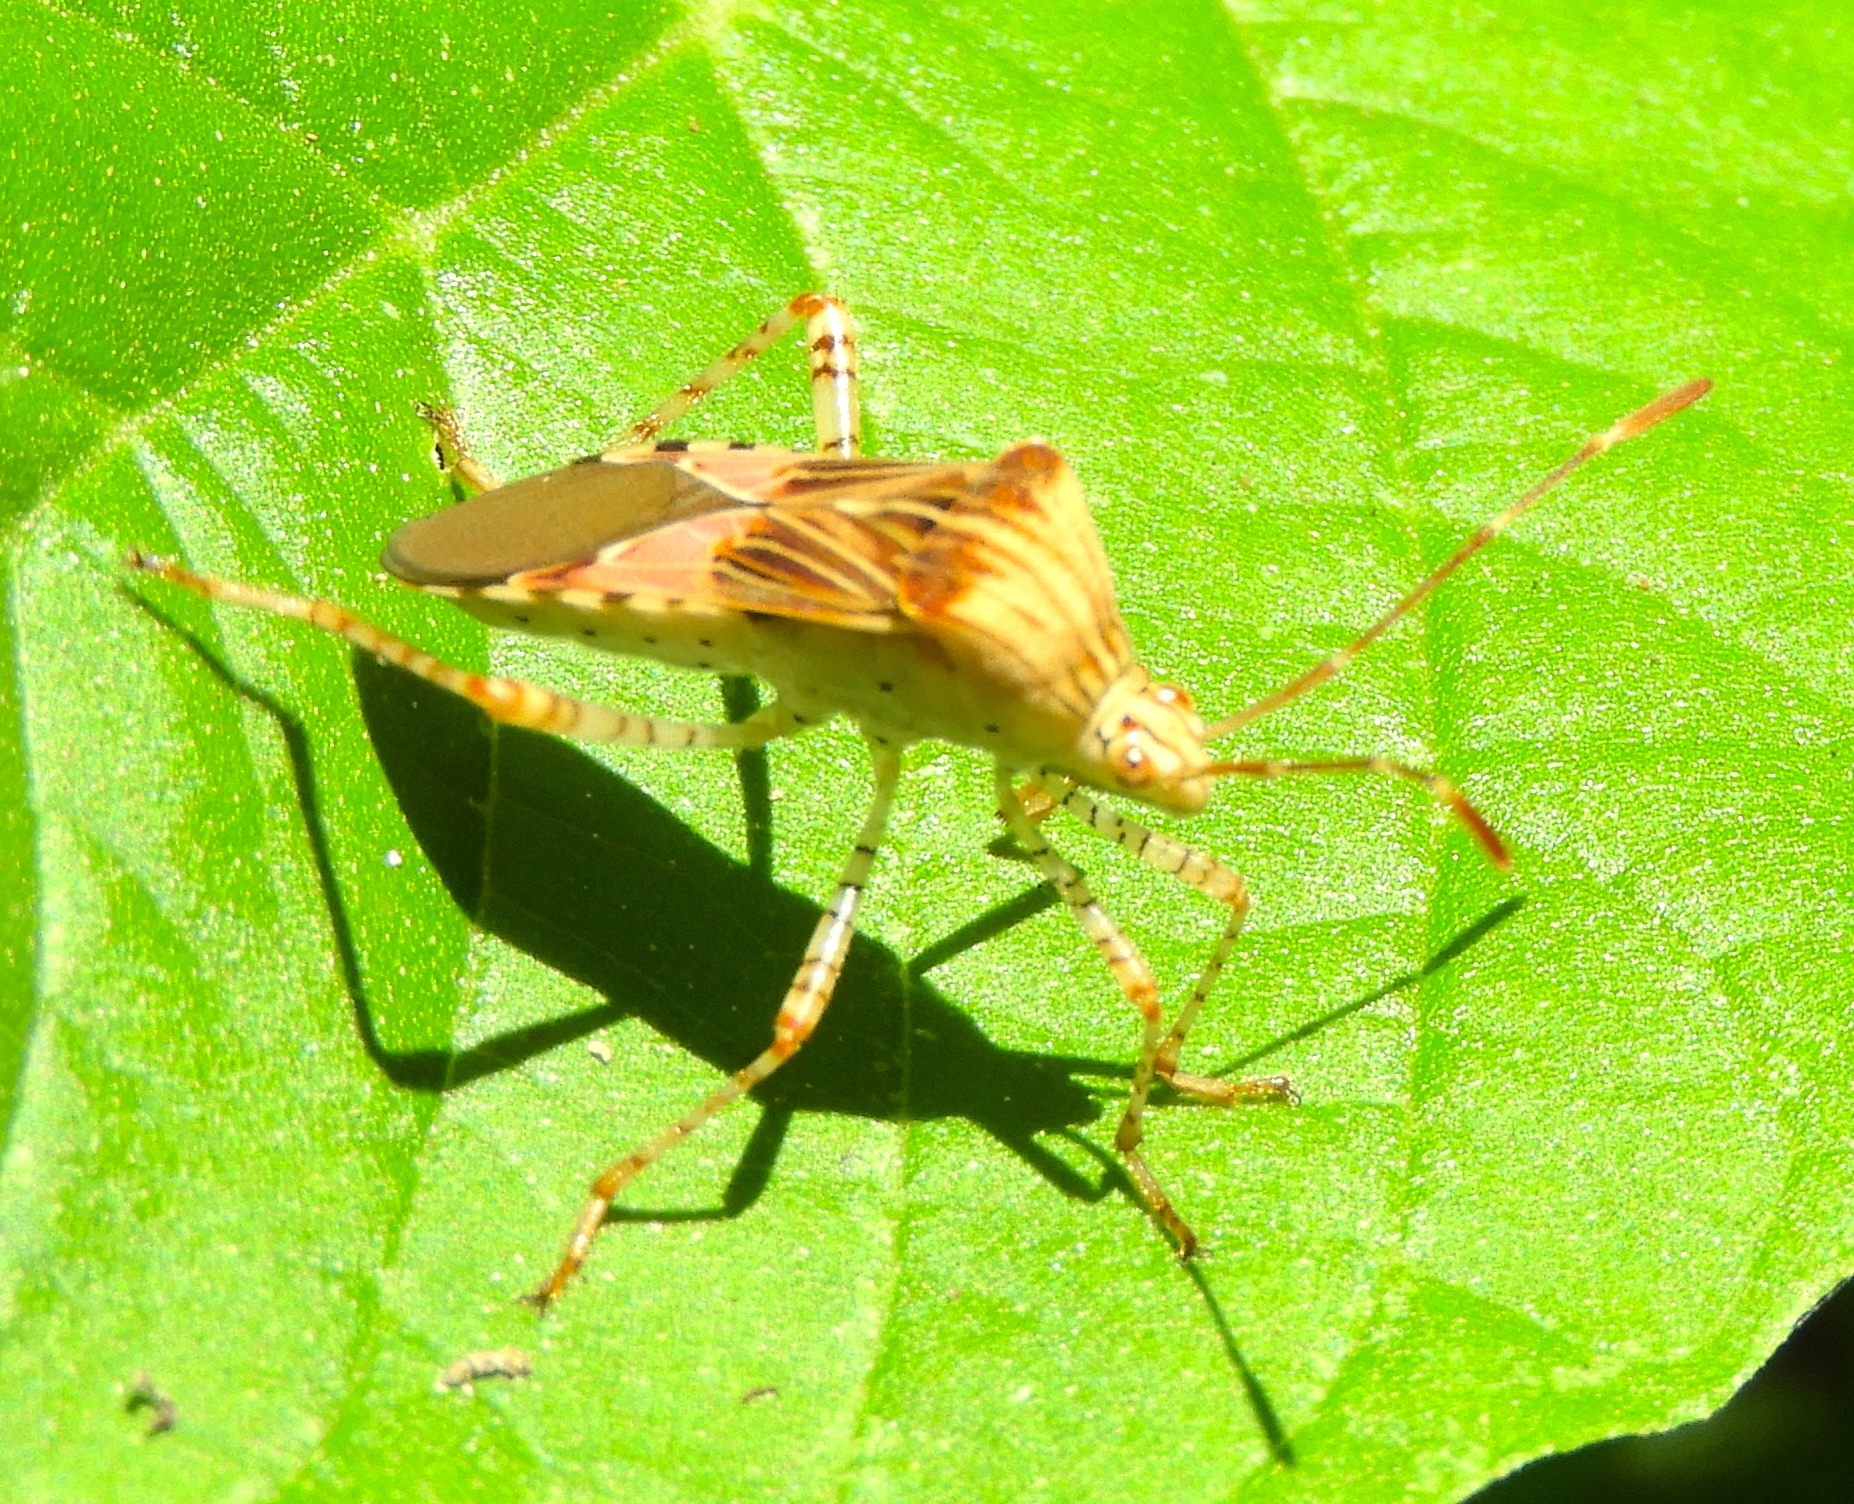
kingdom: Animalia
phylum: Arthropoda
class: Insecta
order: Hemiptera
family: Coreidae
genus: Hypselonotus
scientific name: Hypselonotus punctiventris
